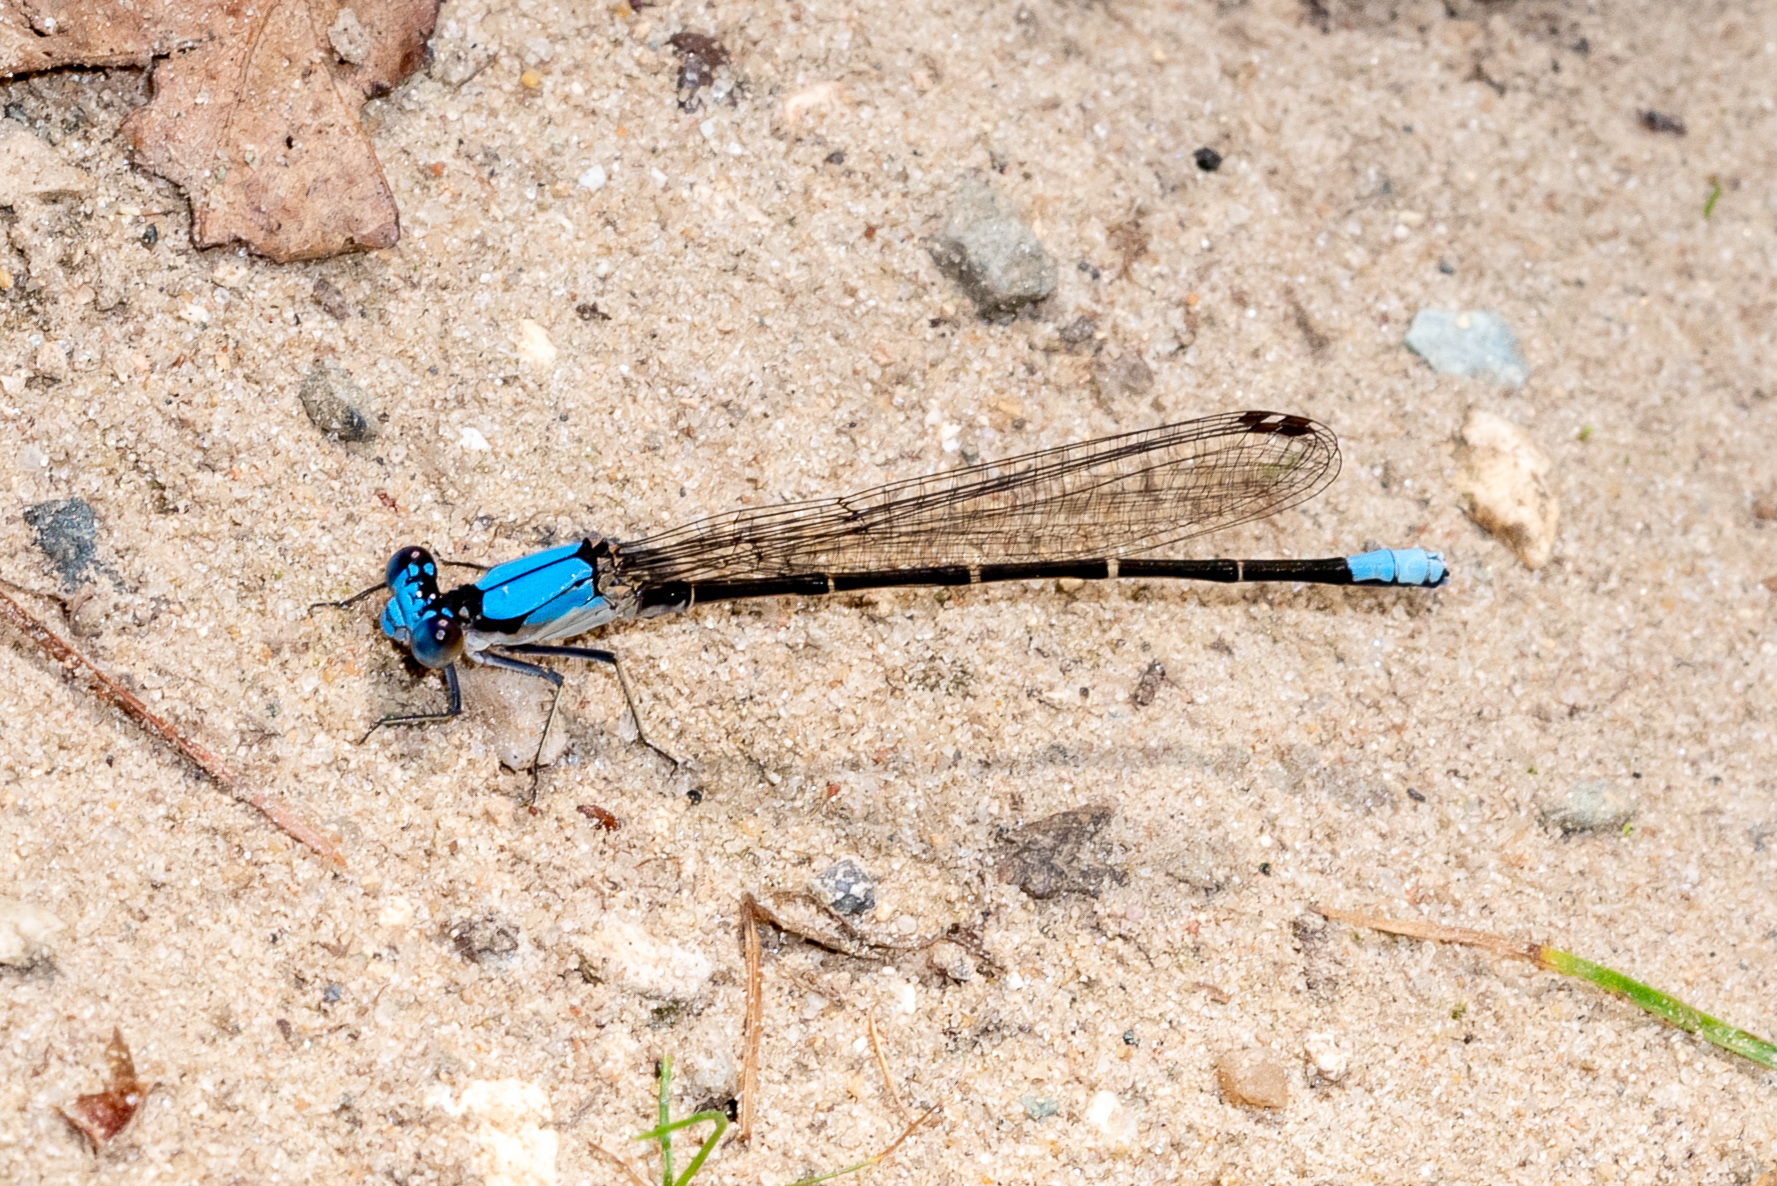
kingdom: Animalia
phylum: Arthropoda
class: Insecta
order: Odonata
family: Coenagrionidae
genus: Argia
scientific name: Argia apicalis
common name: Blue-fronted dancer
